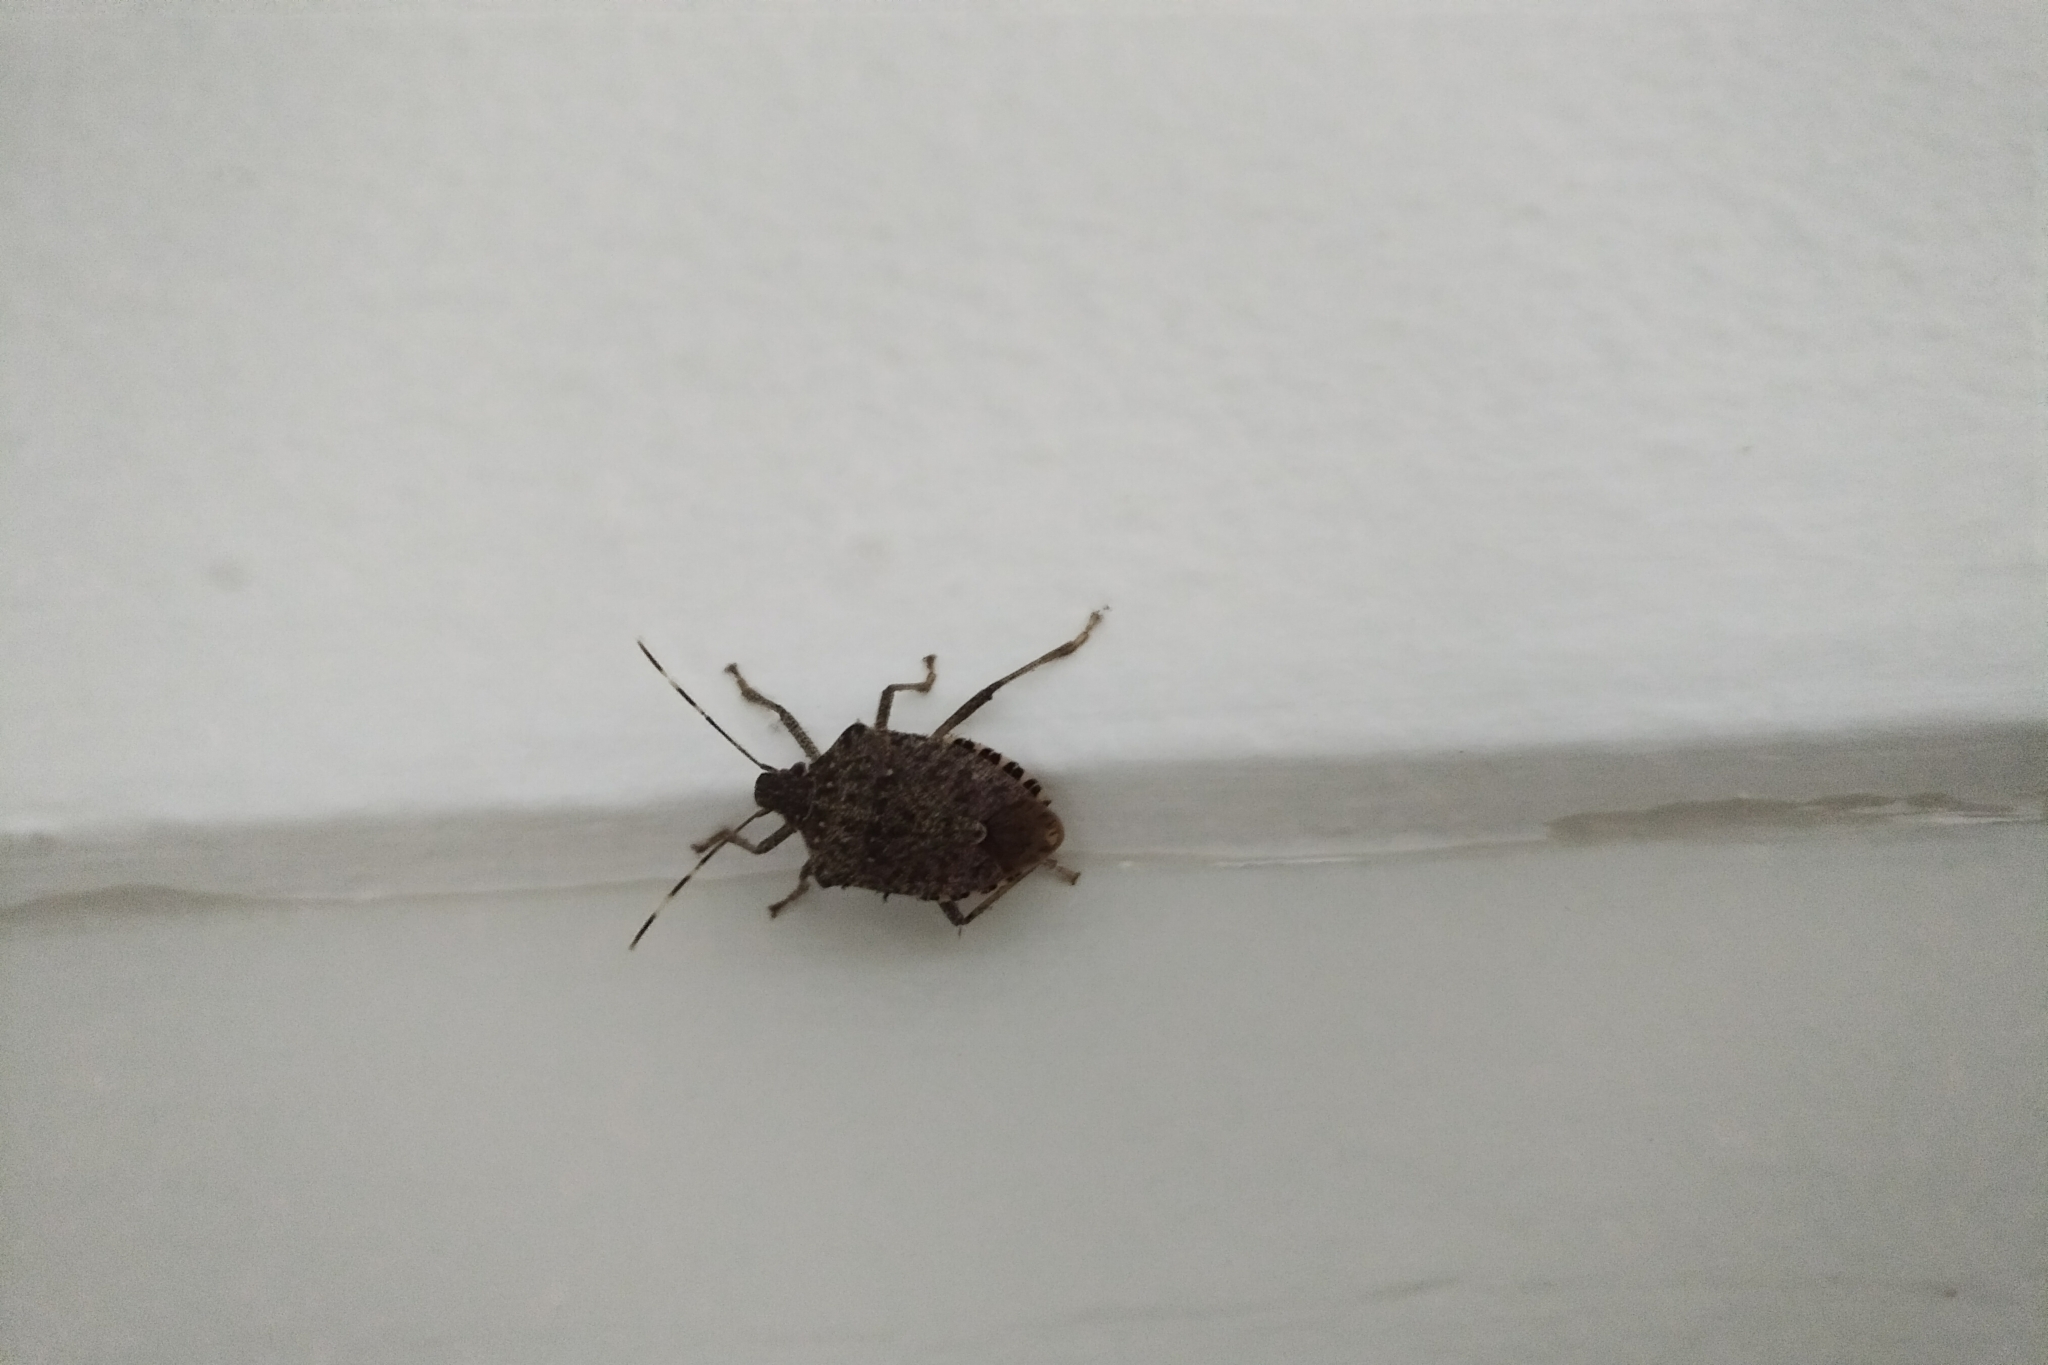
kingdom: Animalia
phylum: Arthropoda
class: Insecta
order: Hemiptera
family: Pentatomidae
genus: Halyomorpha
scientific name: Halyomorpha halys
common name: Brown marmorated stink bug
